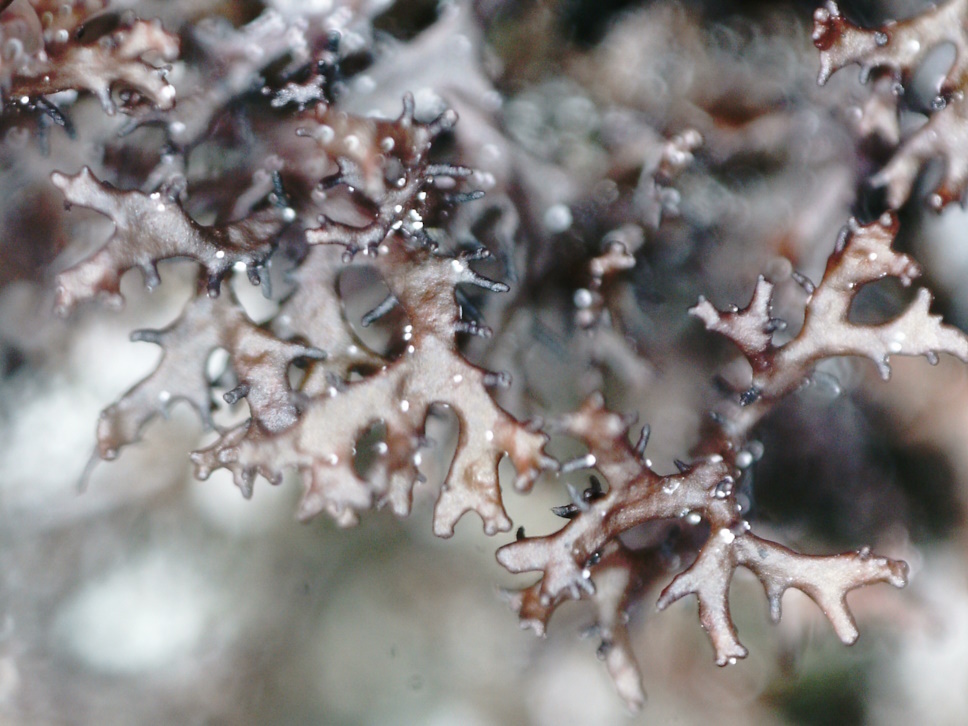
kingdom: Fungi
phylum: Ascomycota
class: Lecanoromycetes
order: Lecanorales
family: Parmeliaceae
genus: Cetraria
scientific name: Cetraria odontella
